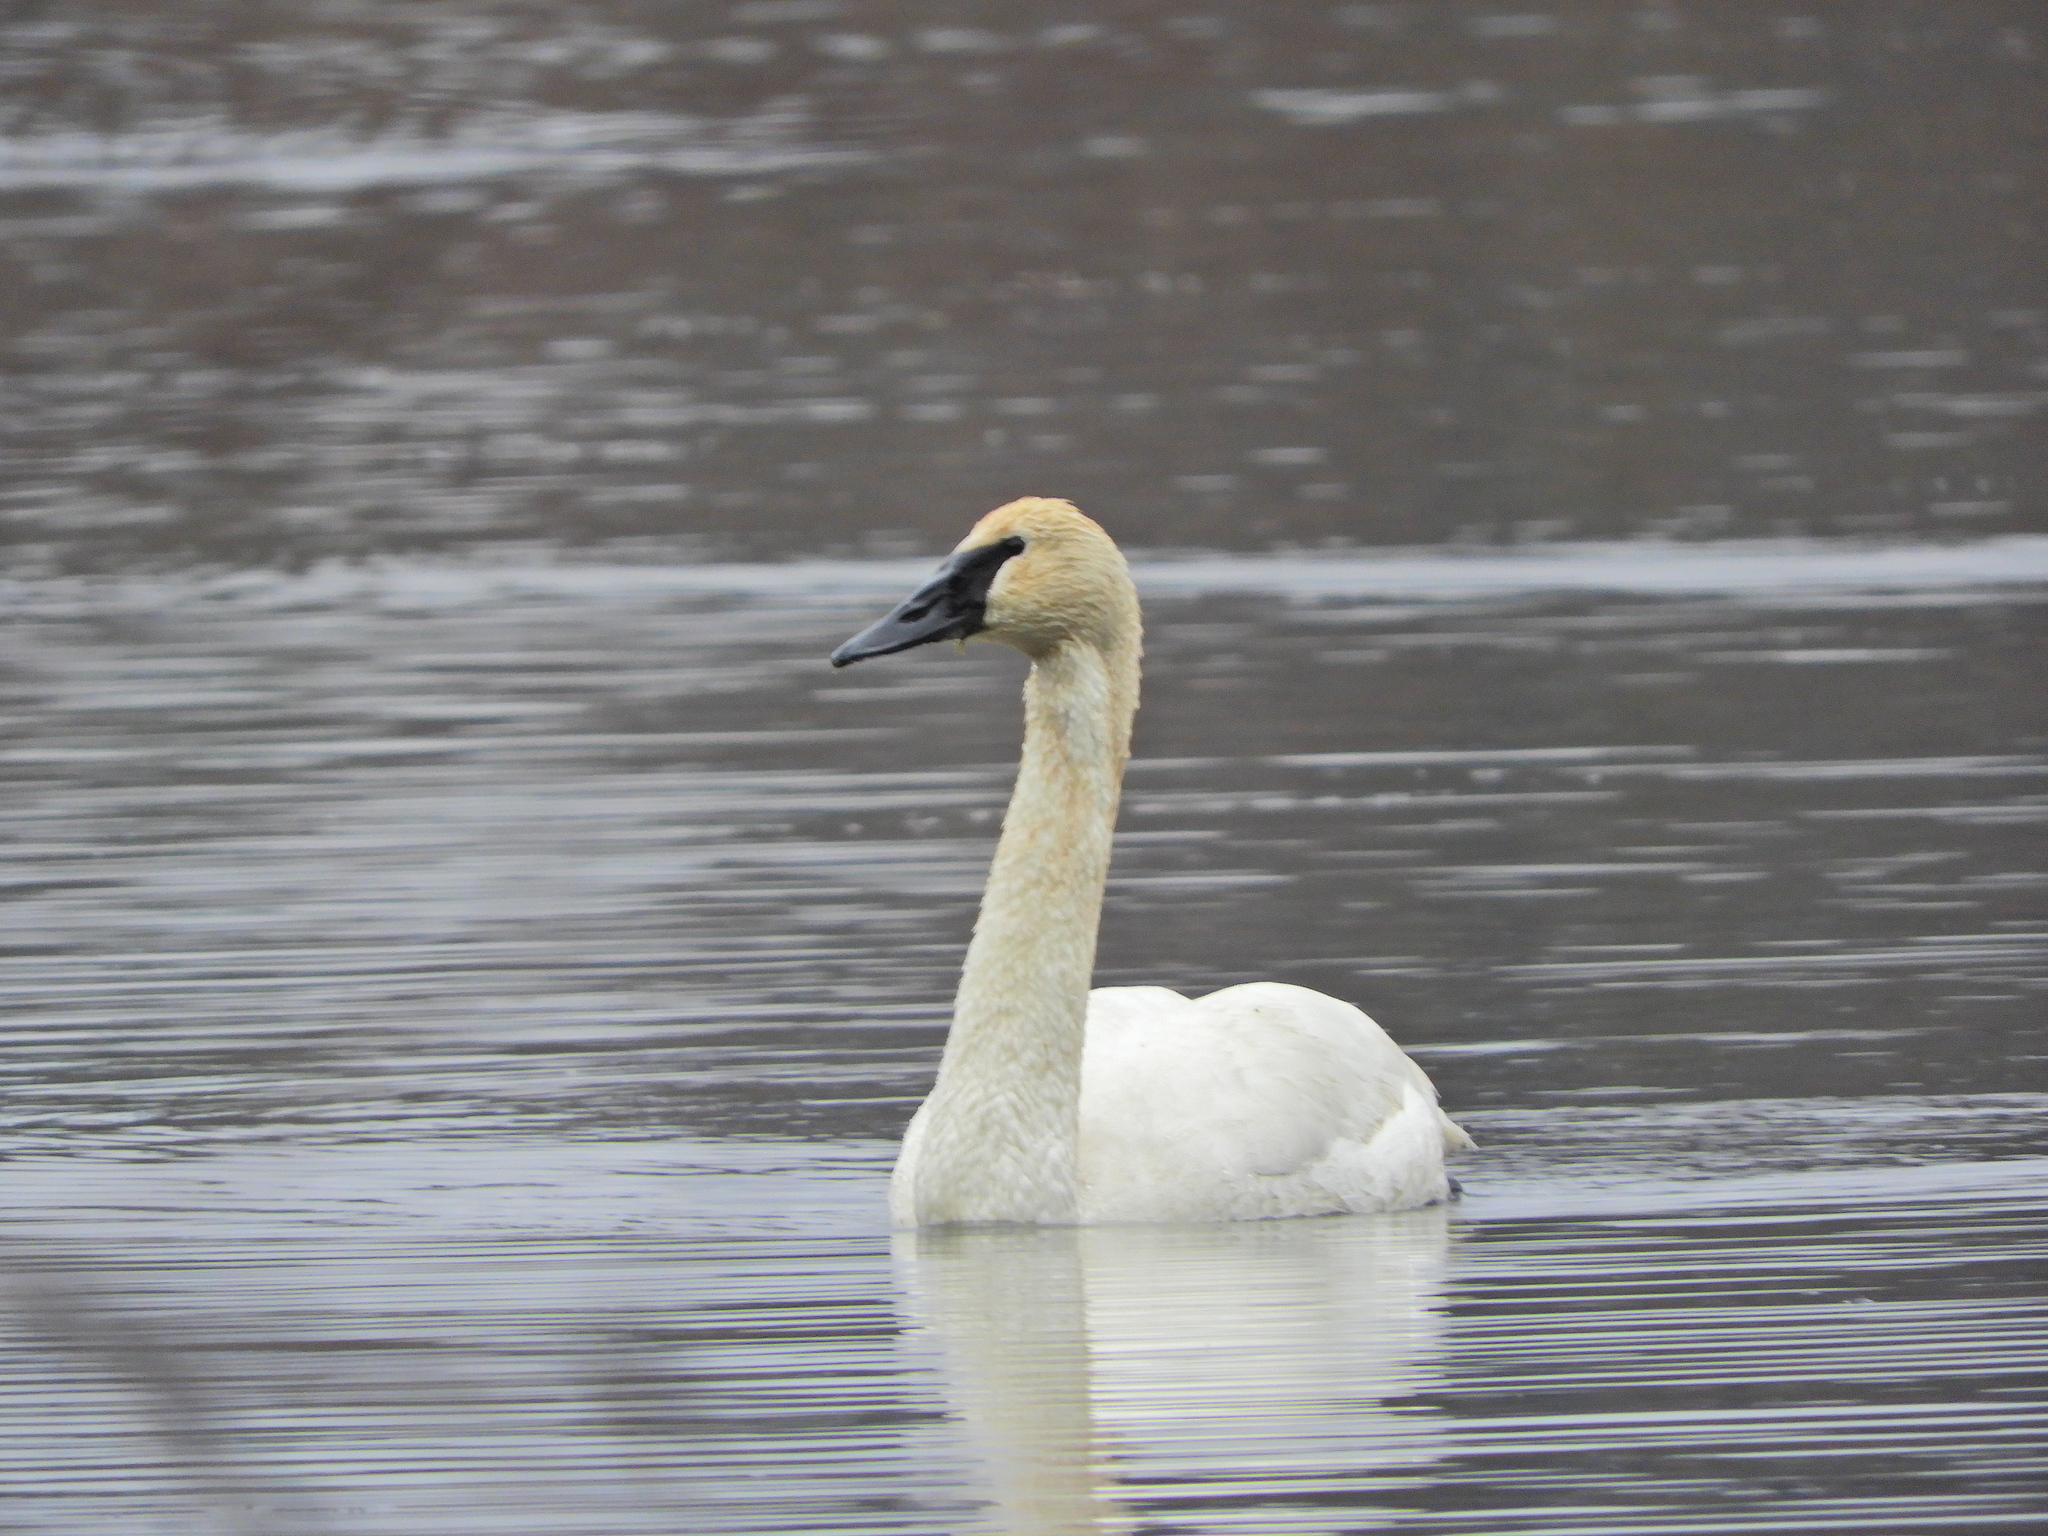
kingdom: Animalia
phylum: Chordata
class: Aves
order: Anseriformes
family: Anatidae
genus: Cygnus
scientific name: Cygnus buccinator
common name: Trumpeter swan
